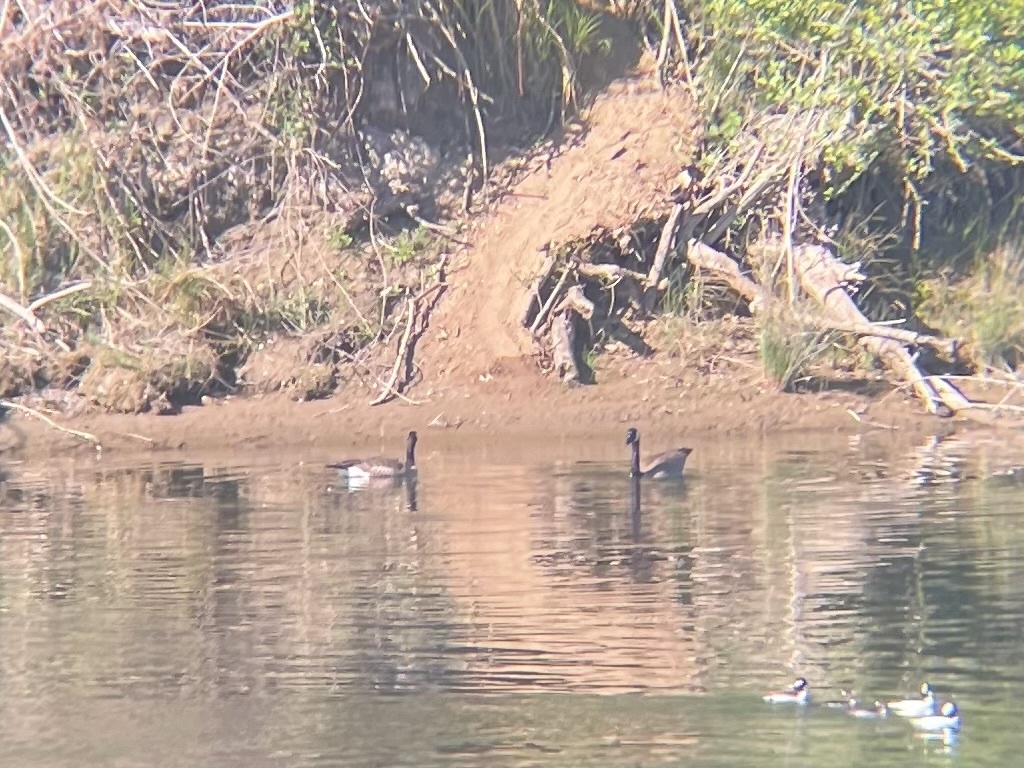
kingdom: Animalia
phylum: Chordata
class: Aves
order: Anseriformes
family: Anatidae
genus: Branta
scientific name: Branta canadensis
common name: Canada goose
